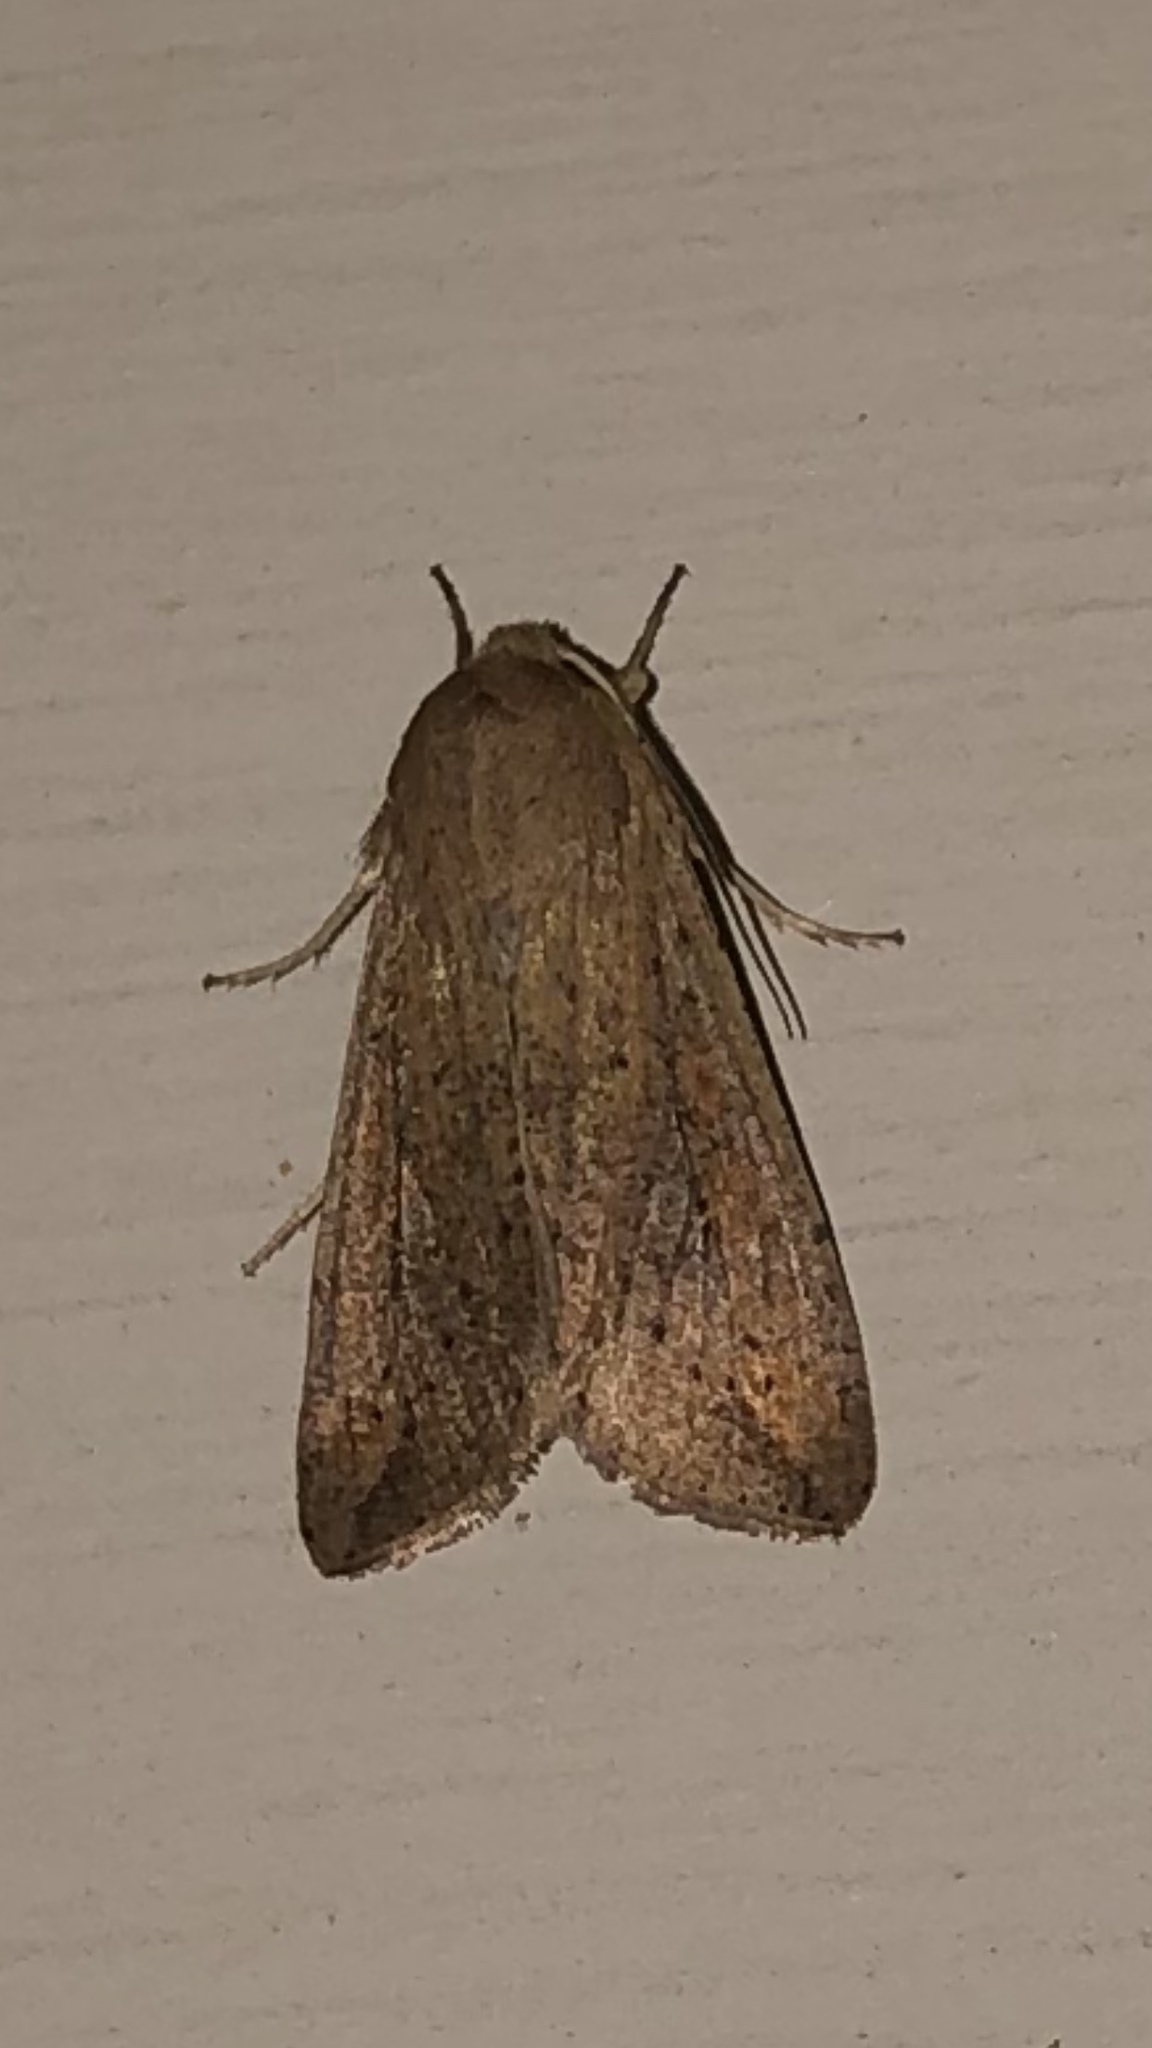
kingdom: Animalia
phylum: Arthropoda
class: Insecta
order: Lepidoptera
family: Noctuidae
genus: Mythimna
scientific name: Mythimna unipuncta
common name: White-speck
